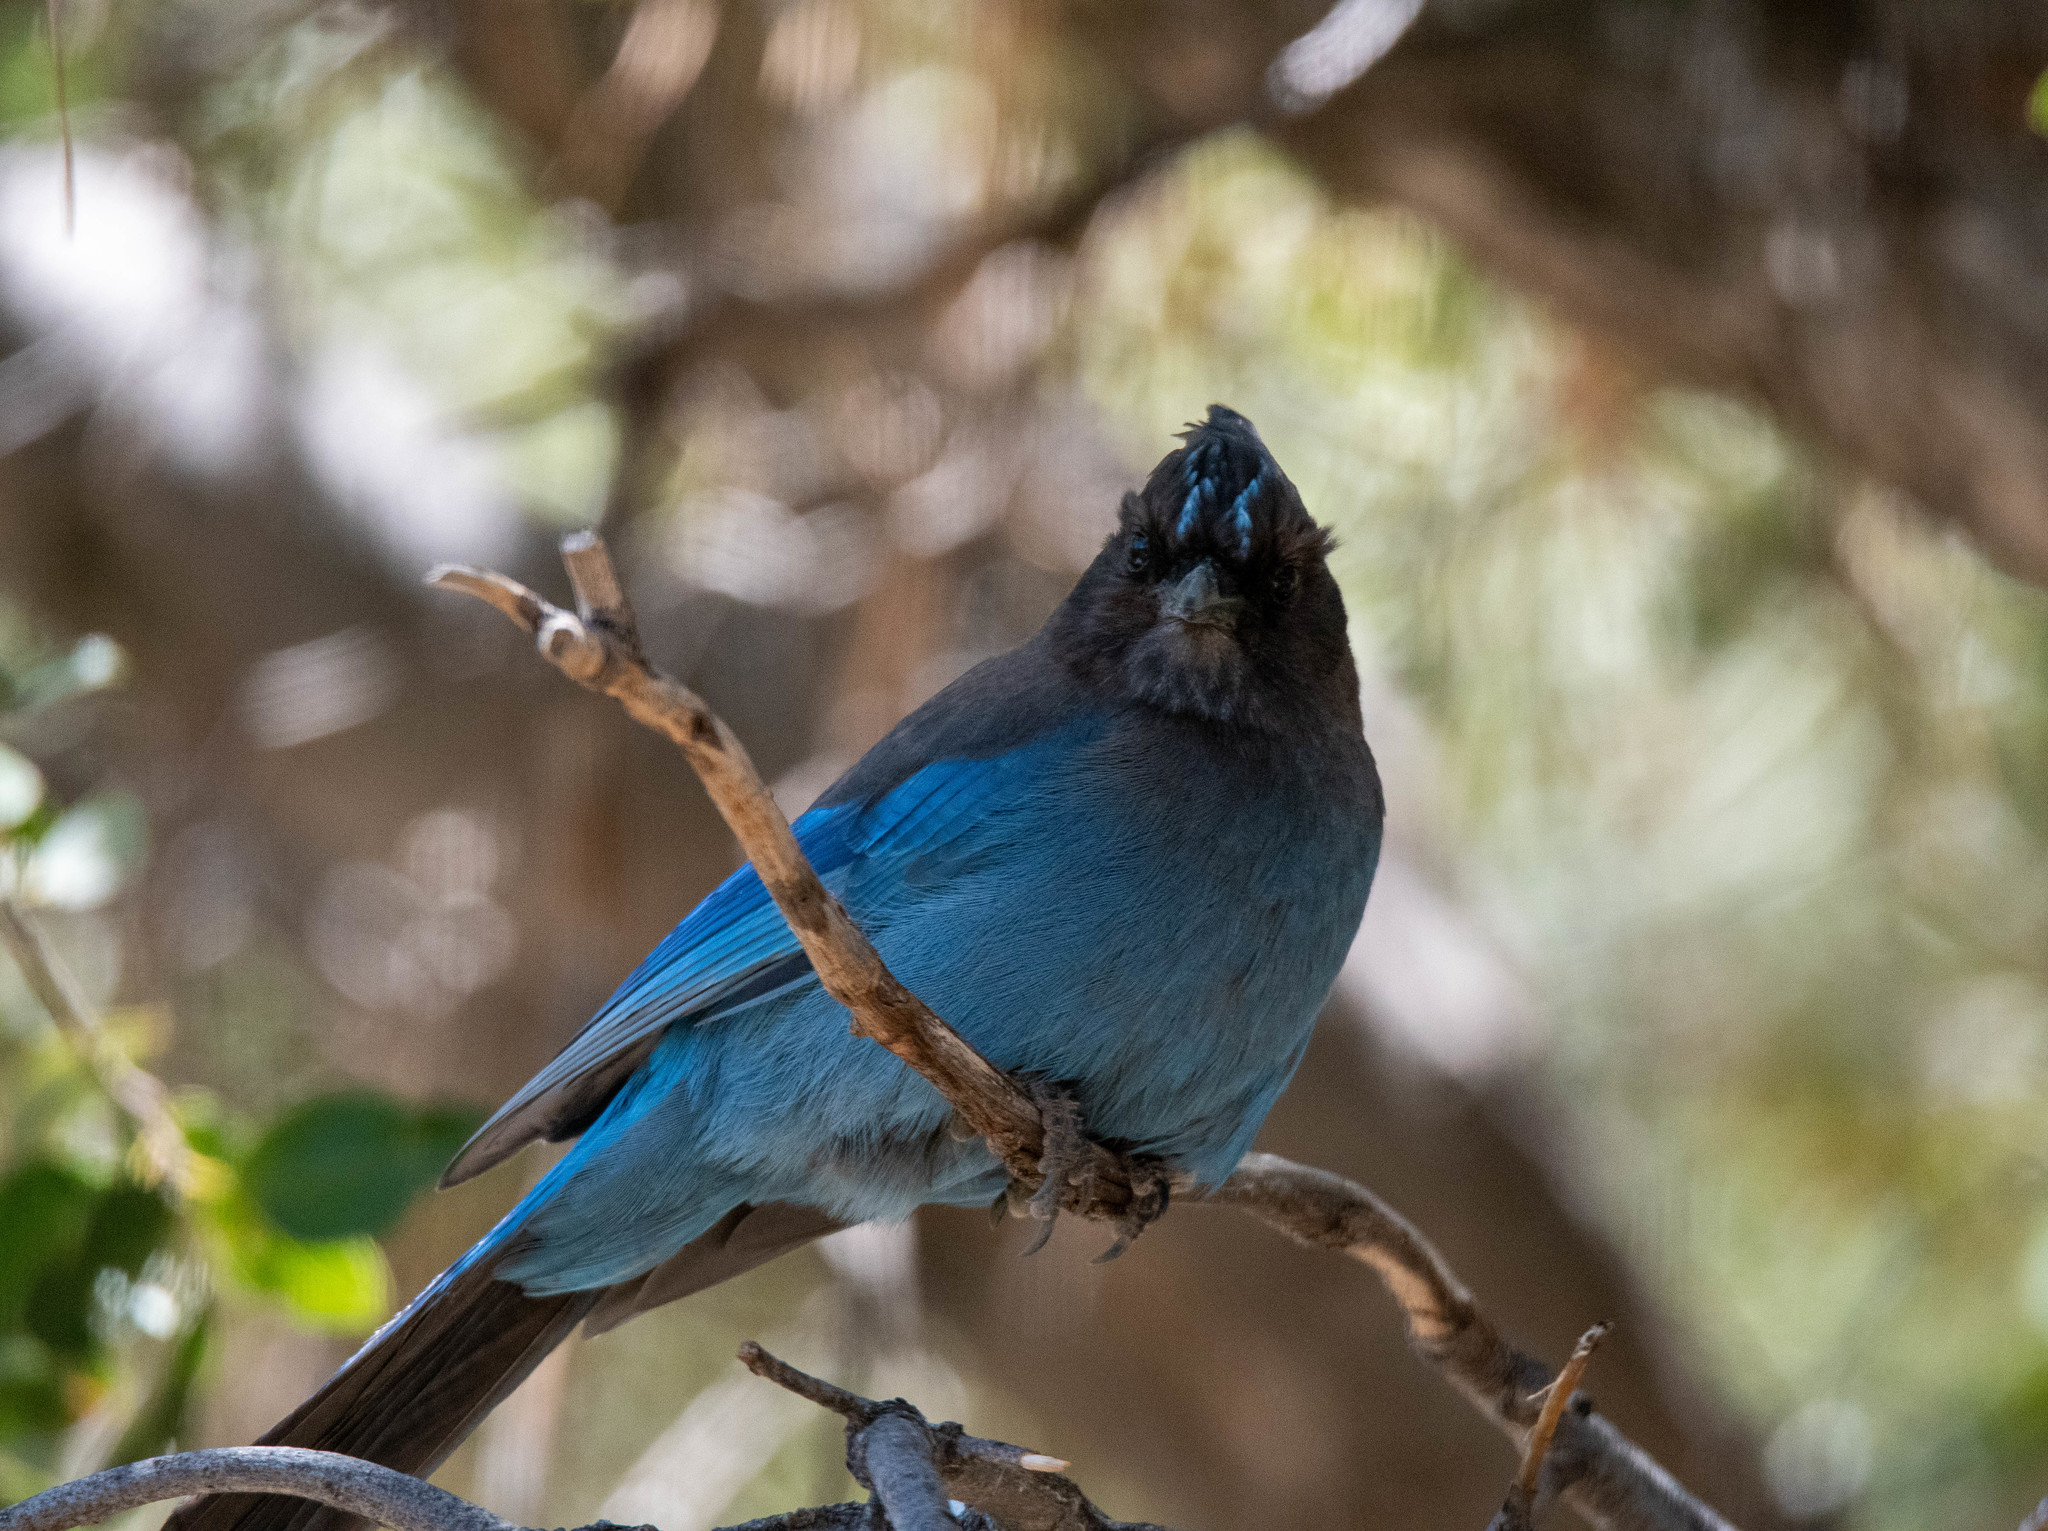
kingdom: Animalia
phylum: Chordata
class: Aves
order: Passeriformes
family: Corvidae
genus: Cyanocitta
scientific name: Cyanocitta stelleri
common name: Steller's jay
